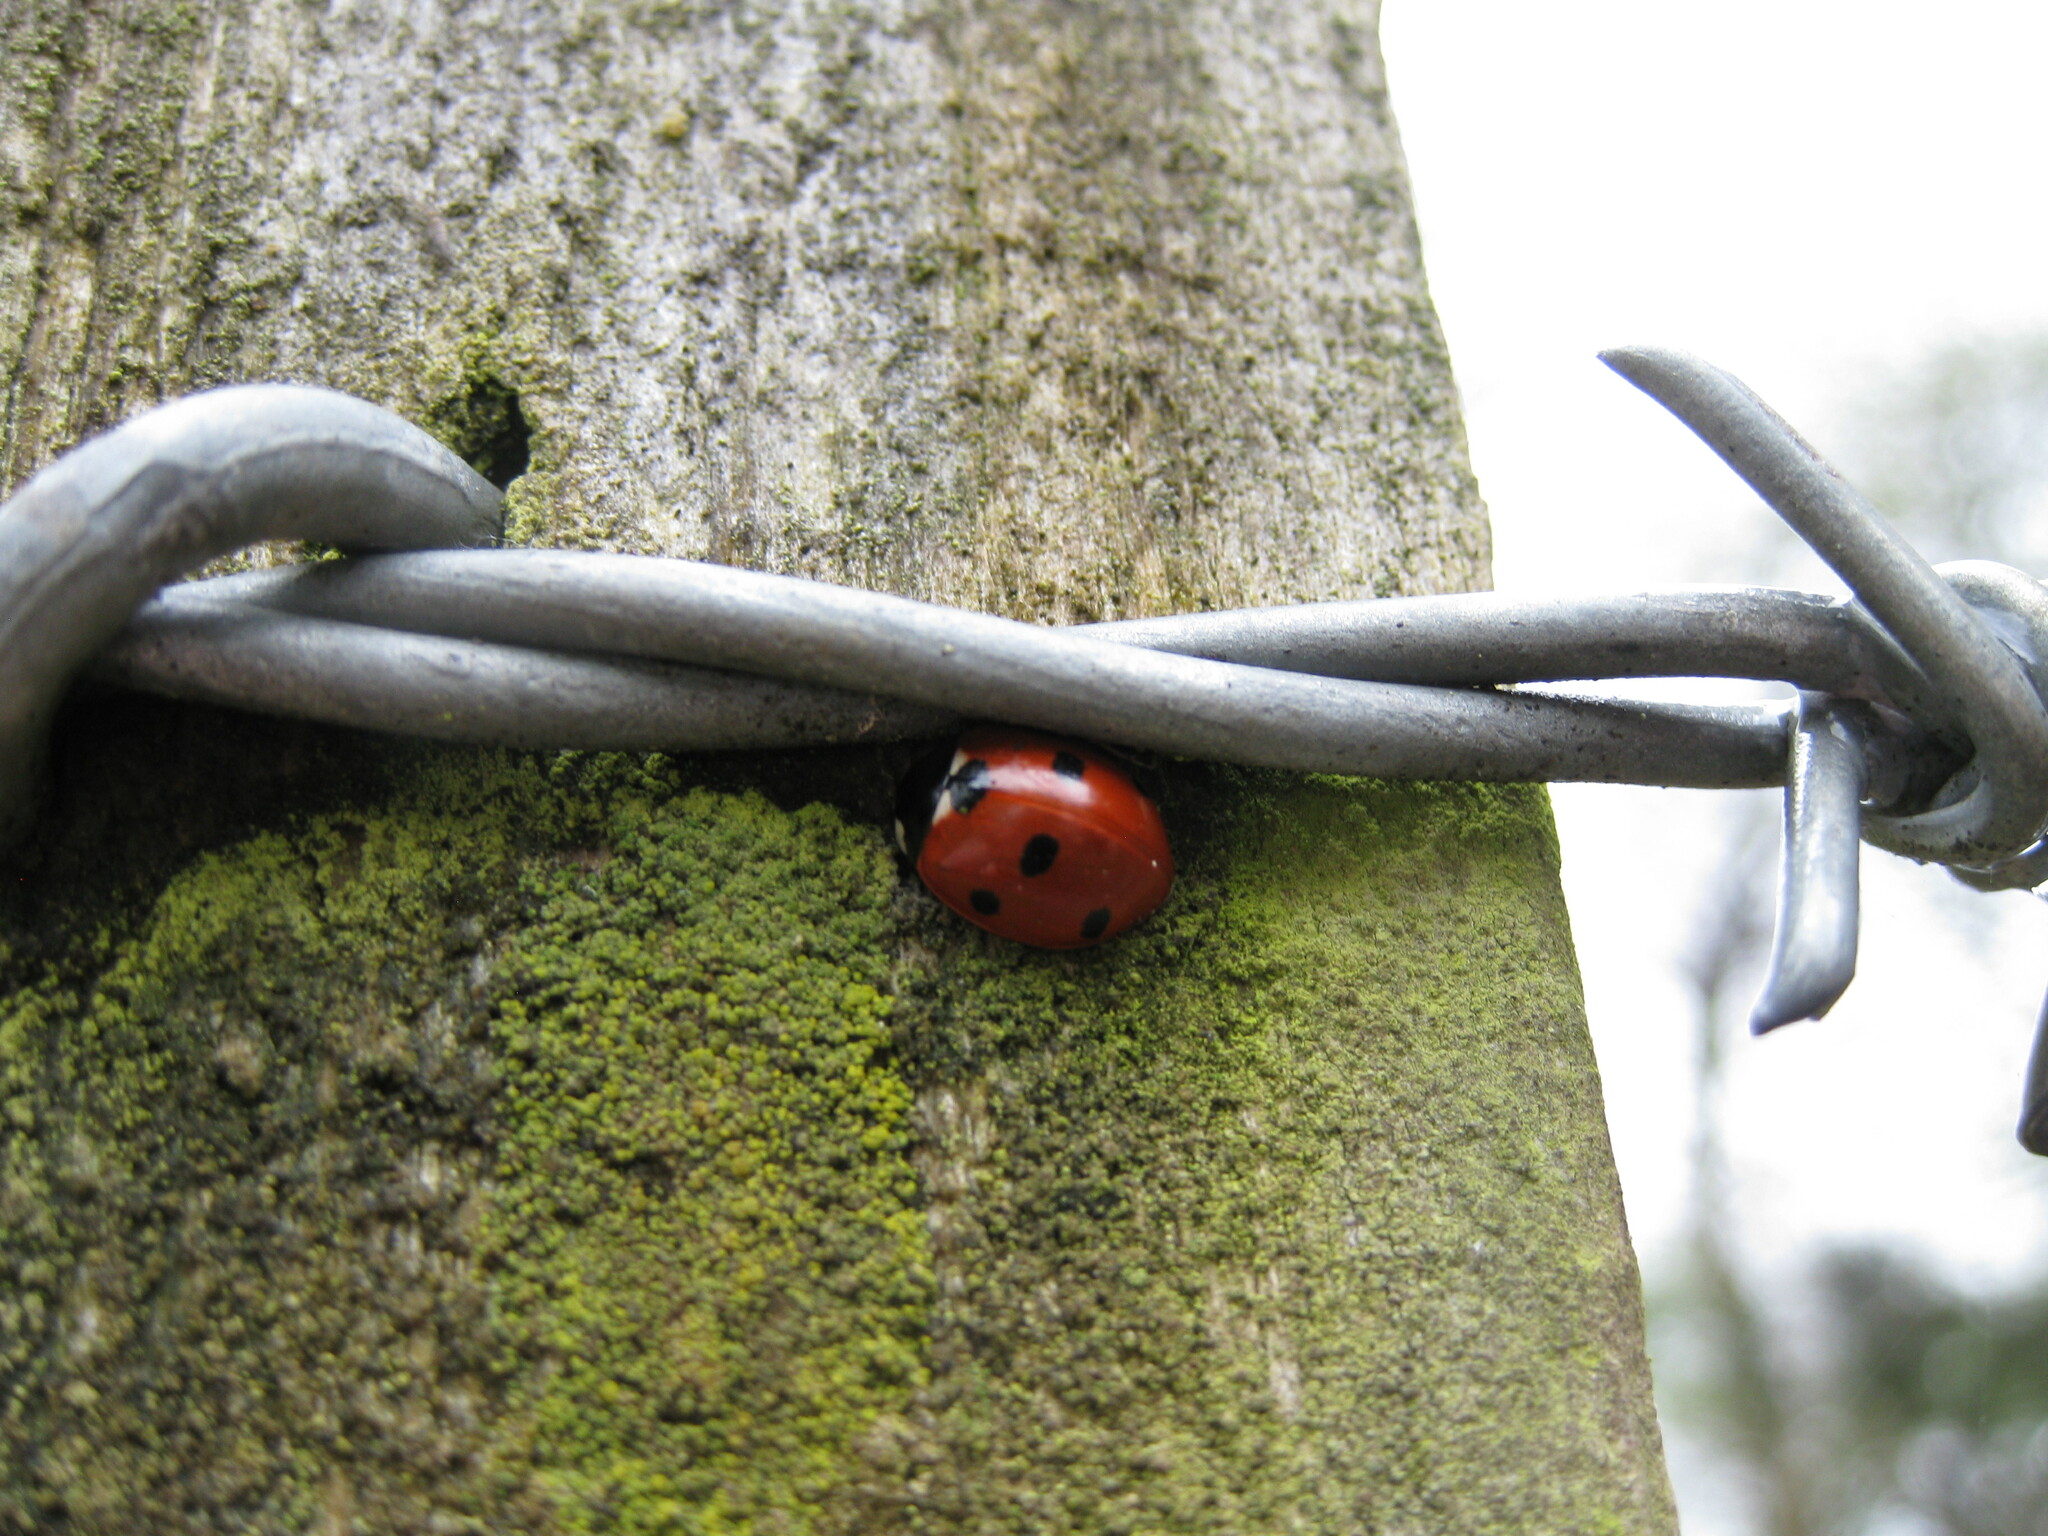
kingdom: Animalia
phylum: Arthropoda
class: Insecta
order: Coleoptera
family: Coccinellidae
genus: Coccinella
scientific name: Coccinella septempunctata
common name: Sevenspotted lady beetle
